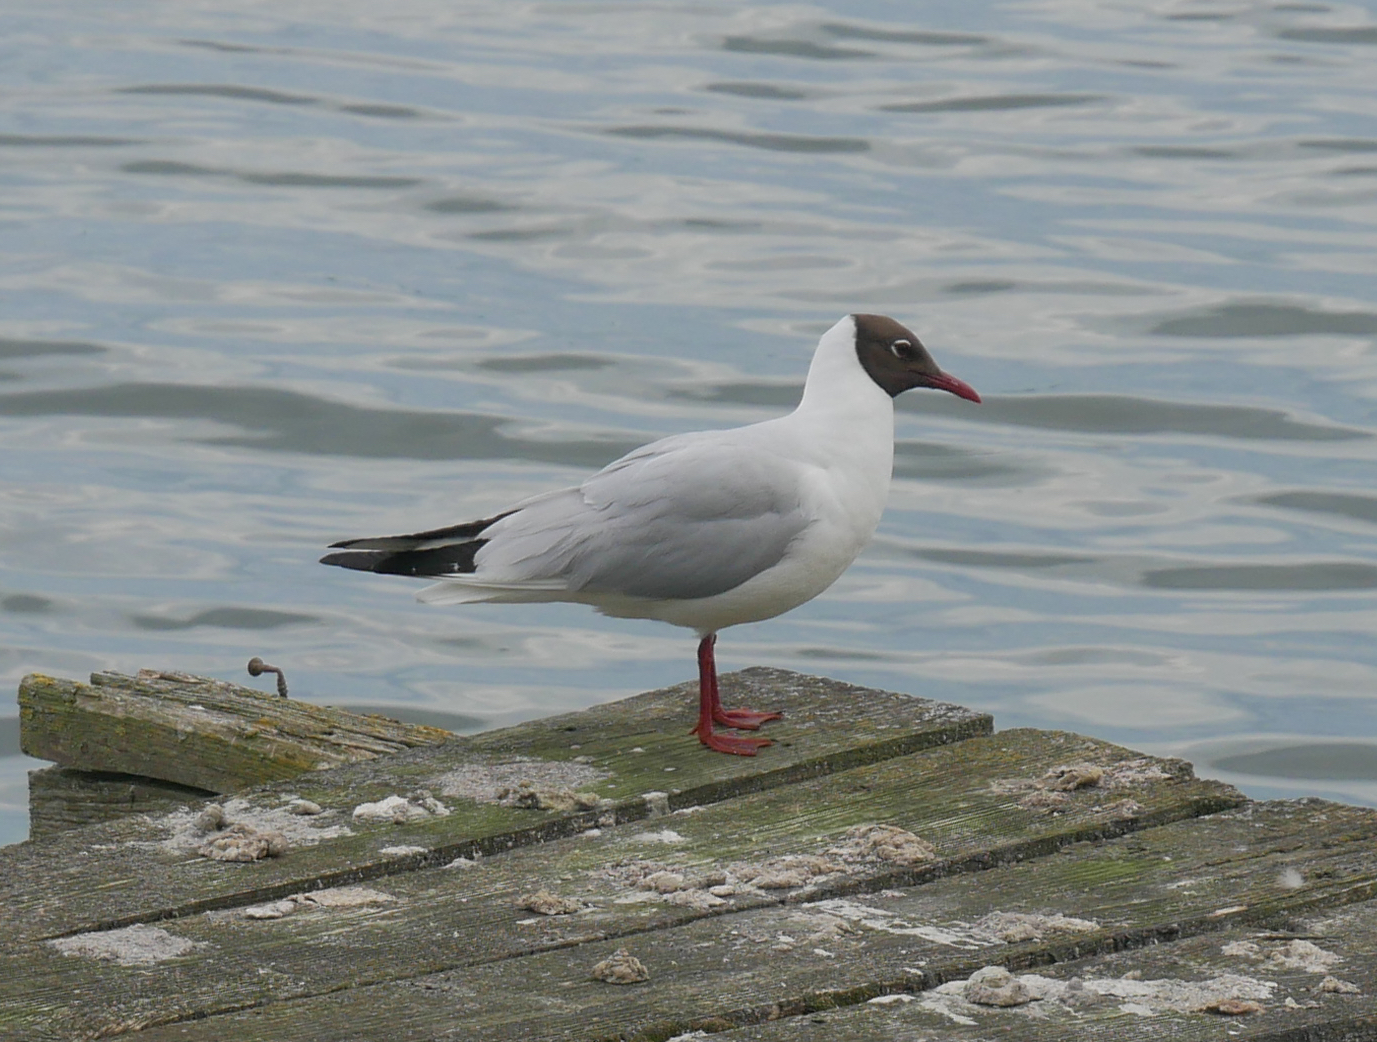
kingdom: Animalia
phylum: Chordata
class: Aves
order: Charadriiformes
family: Laridae
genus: Chroicocephalus
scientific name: Chroicocephalus ridibundus
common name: Black-headed gull
